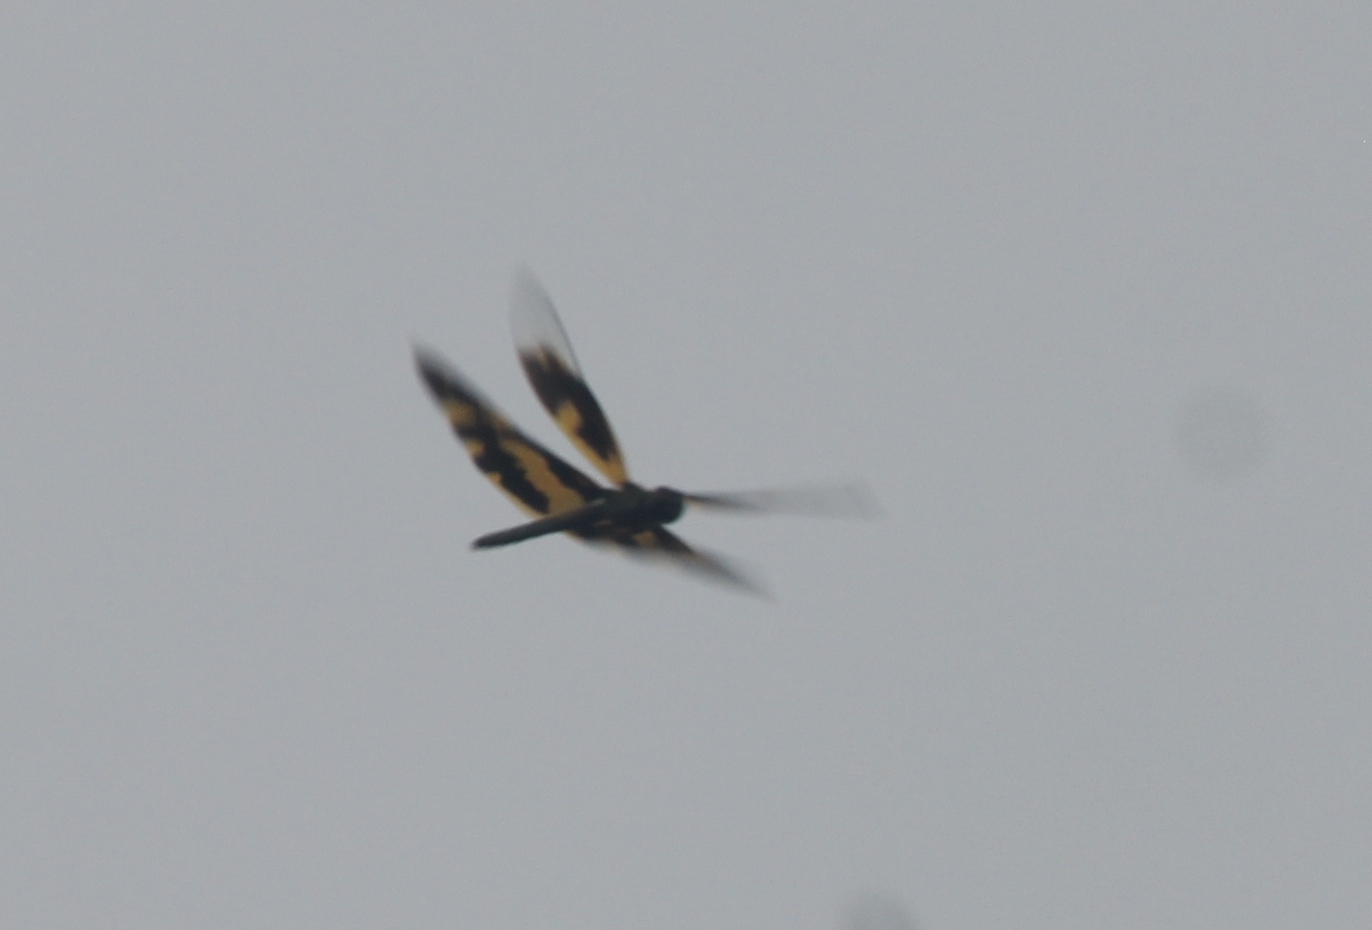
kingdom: Animalia
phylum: Arthropoda
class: Insecta
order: Odonata
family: Libellulidae
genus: Rhyothemis
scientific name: Rhyothemis variegata
